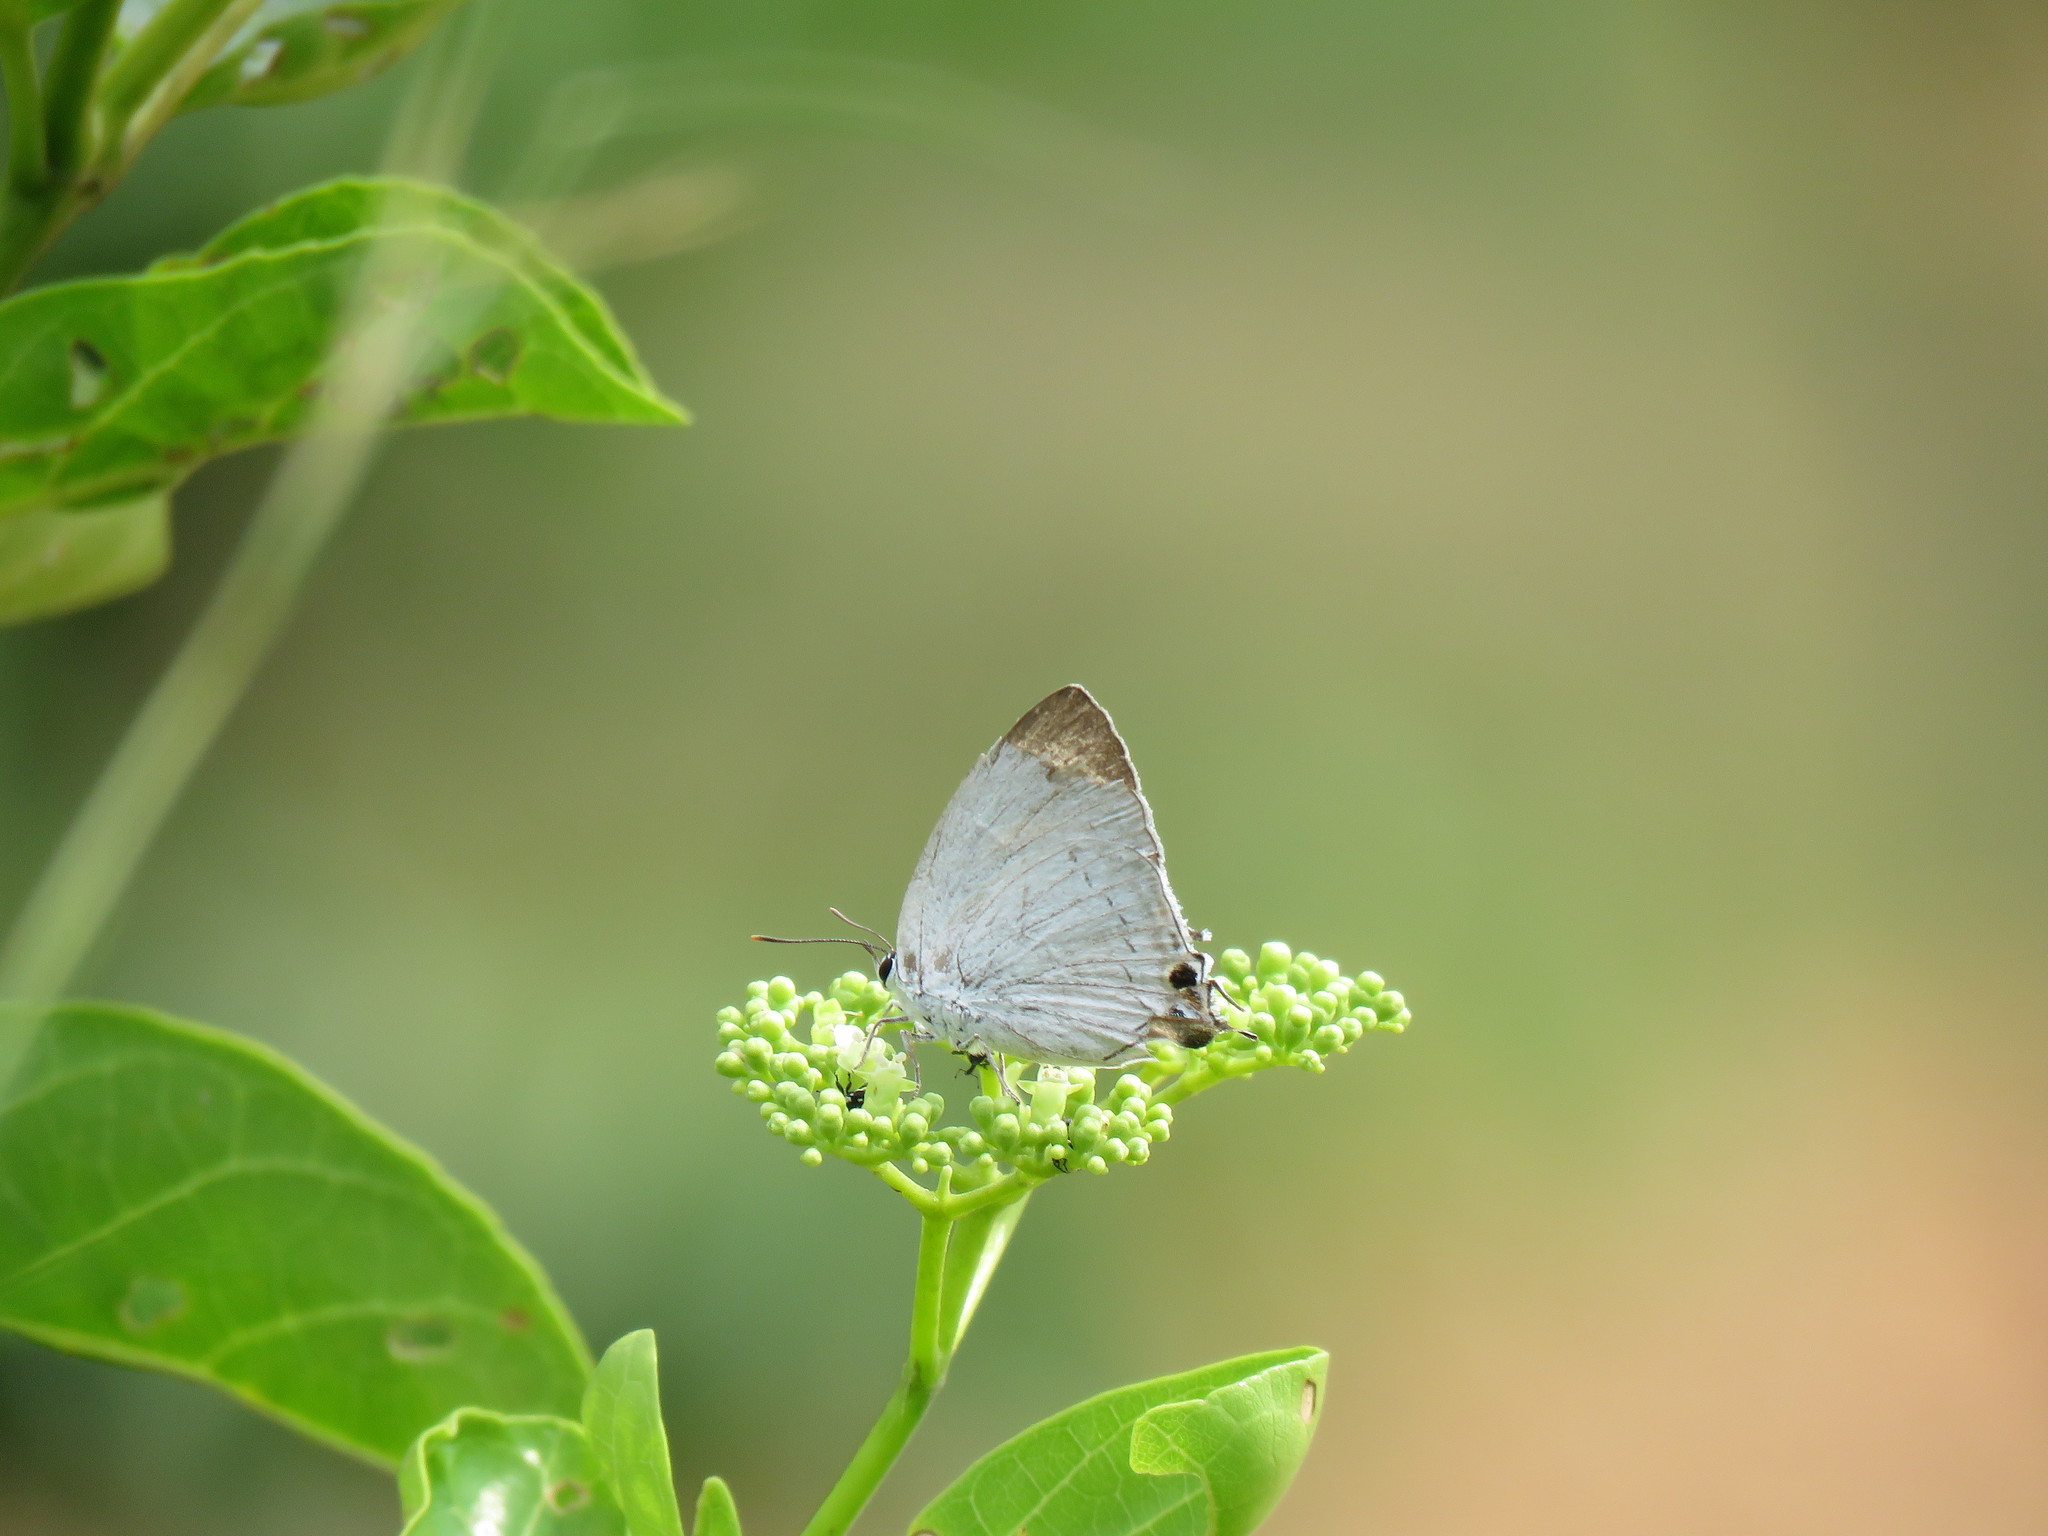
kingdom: Animalia
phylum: Arthropoda
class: Insecta
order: Lepidoptera
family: Lycaenidae
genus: Tajuria
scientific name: Tajuria cippus
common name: Peacock royal
